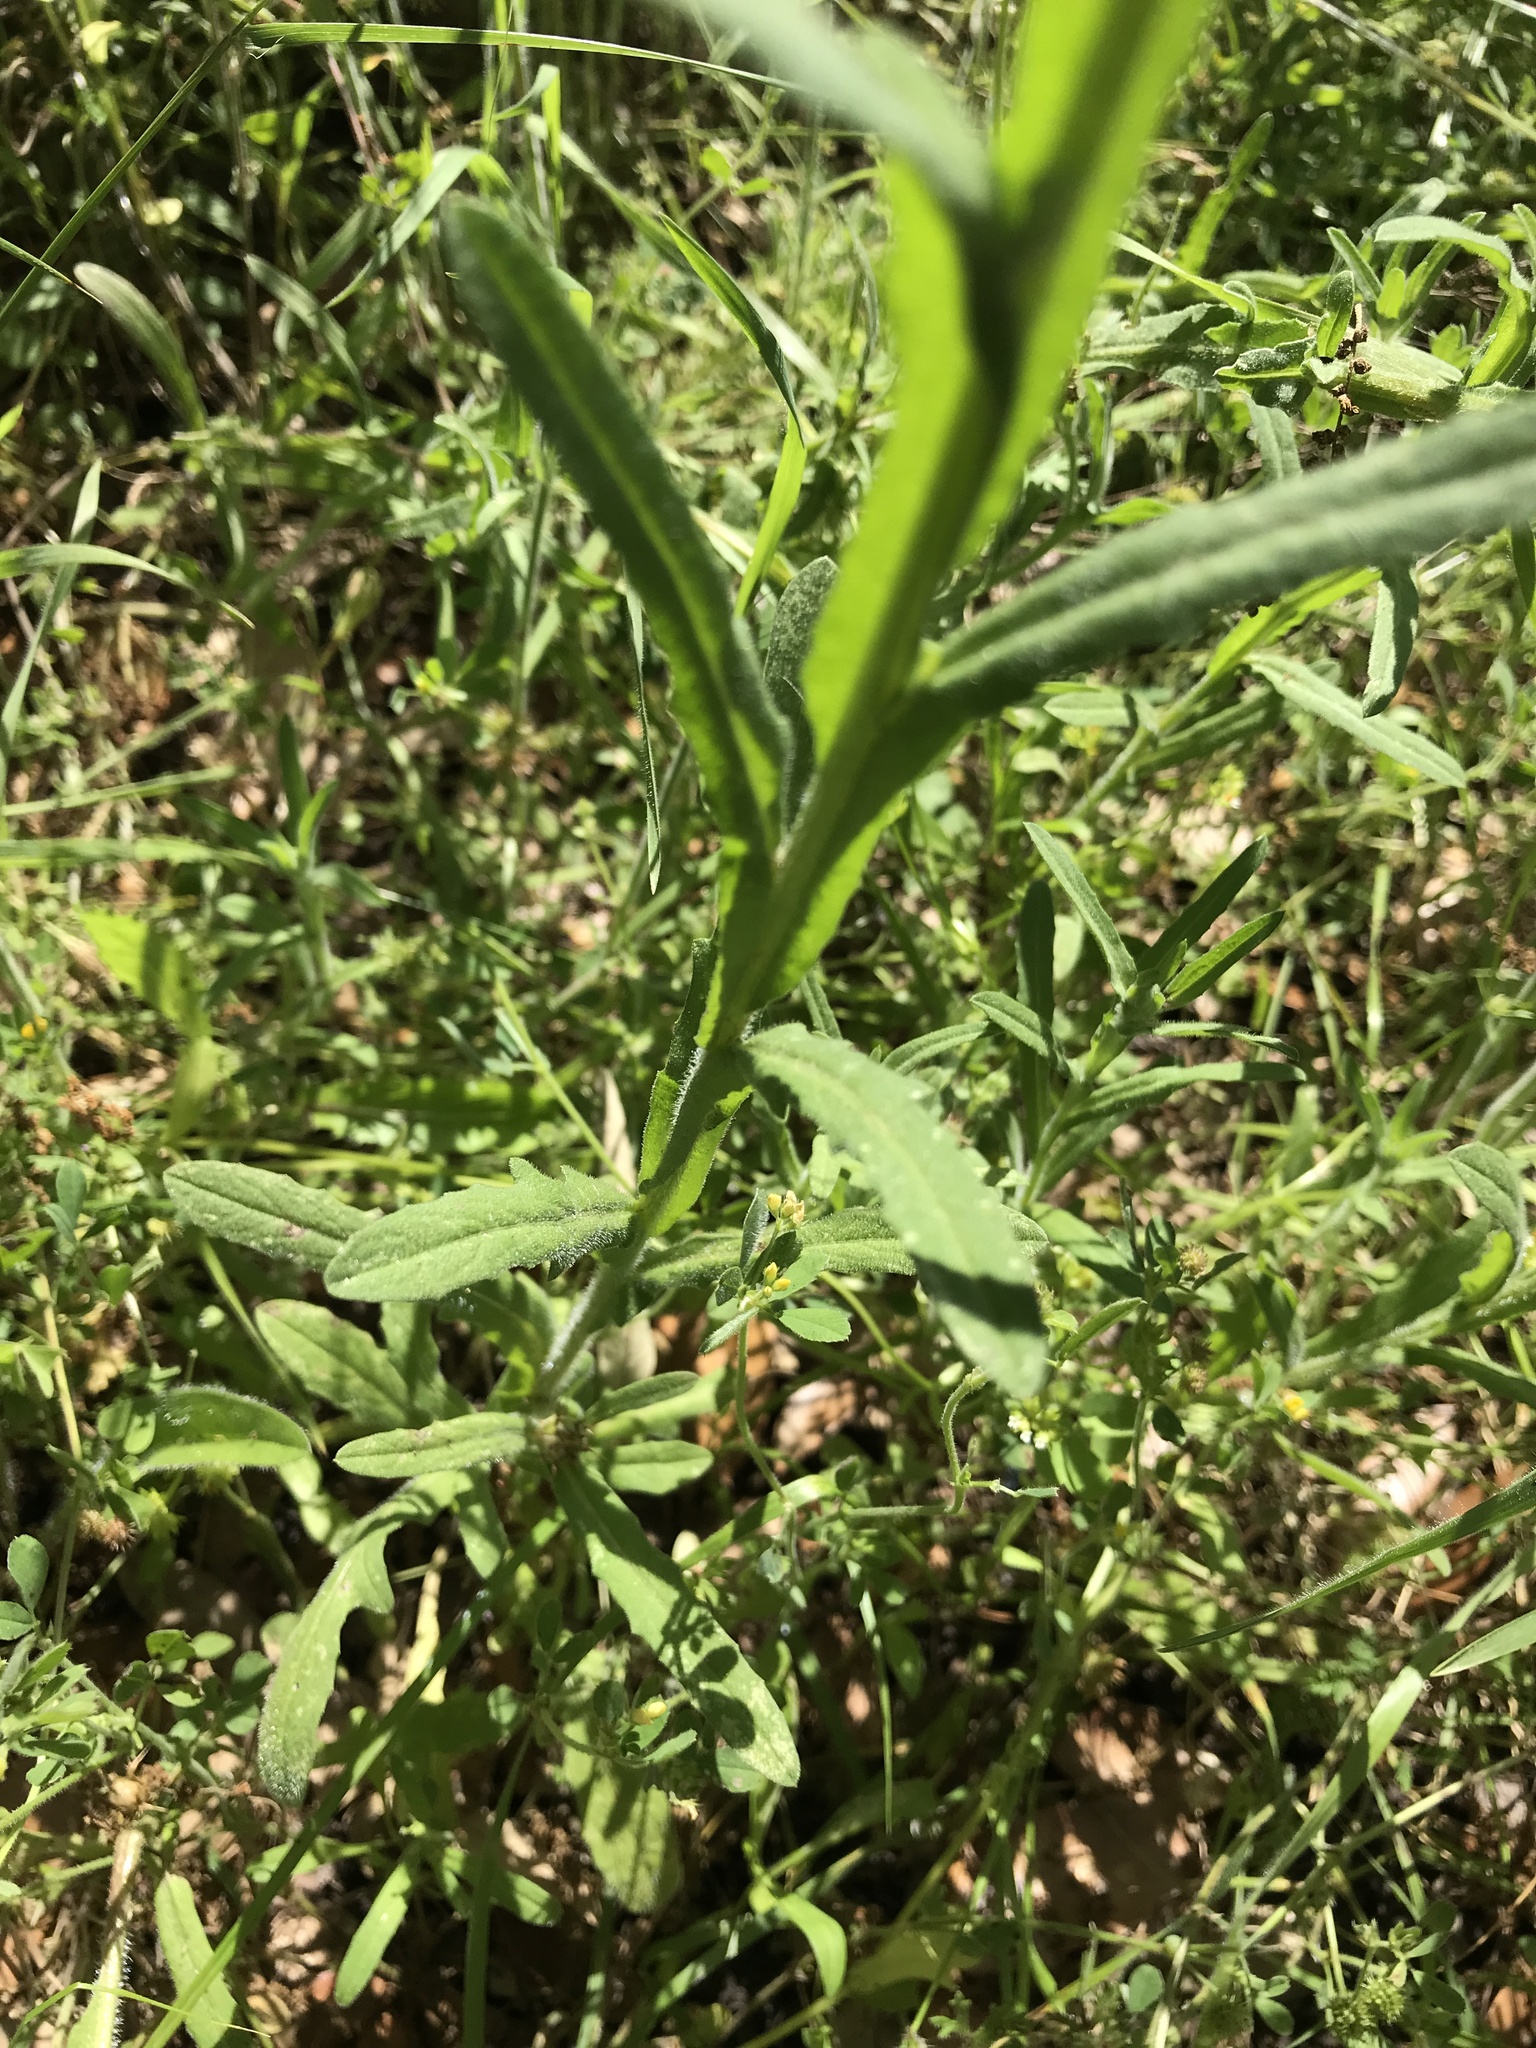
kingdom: Plantae
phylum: Tracheophyta
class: Magnoliopsida
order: Asterales
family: Asteraceae
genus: Centaurea
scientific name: Centaurea melitensis
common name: Maltese star-thistle
